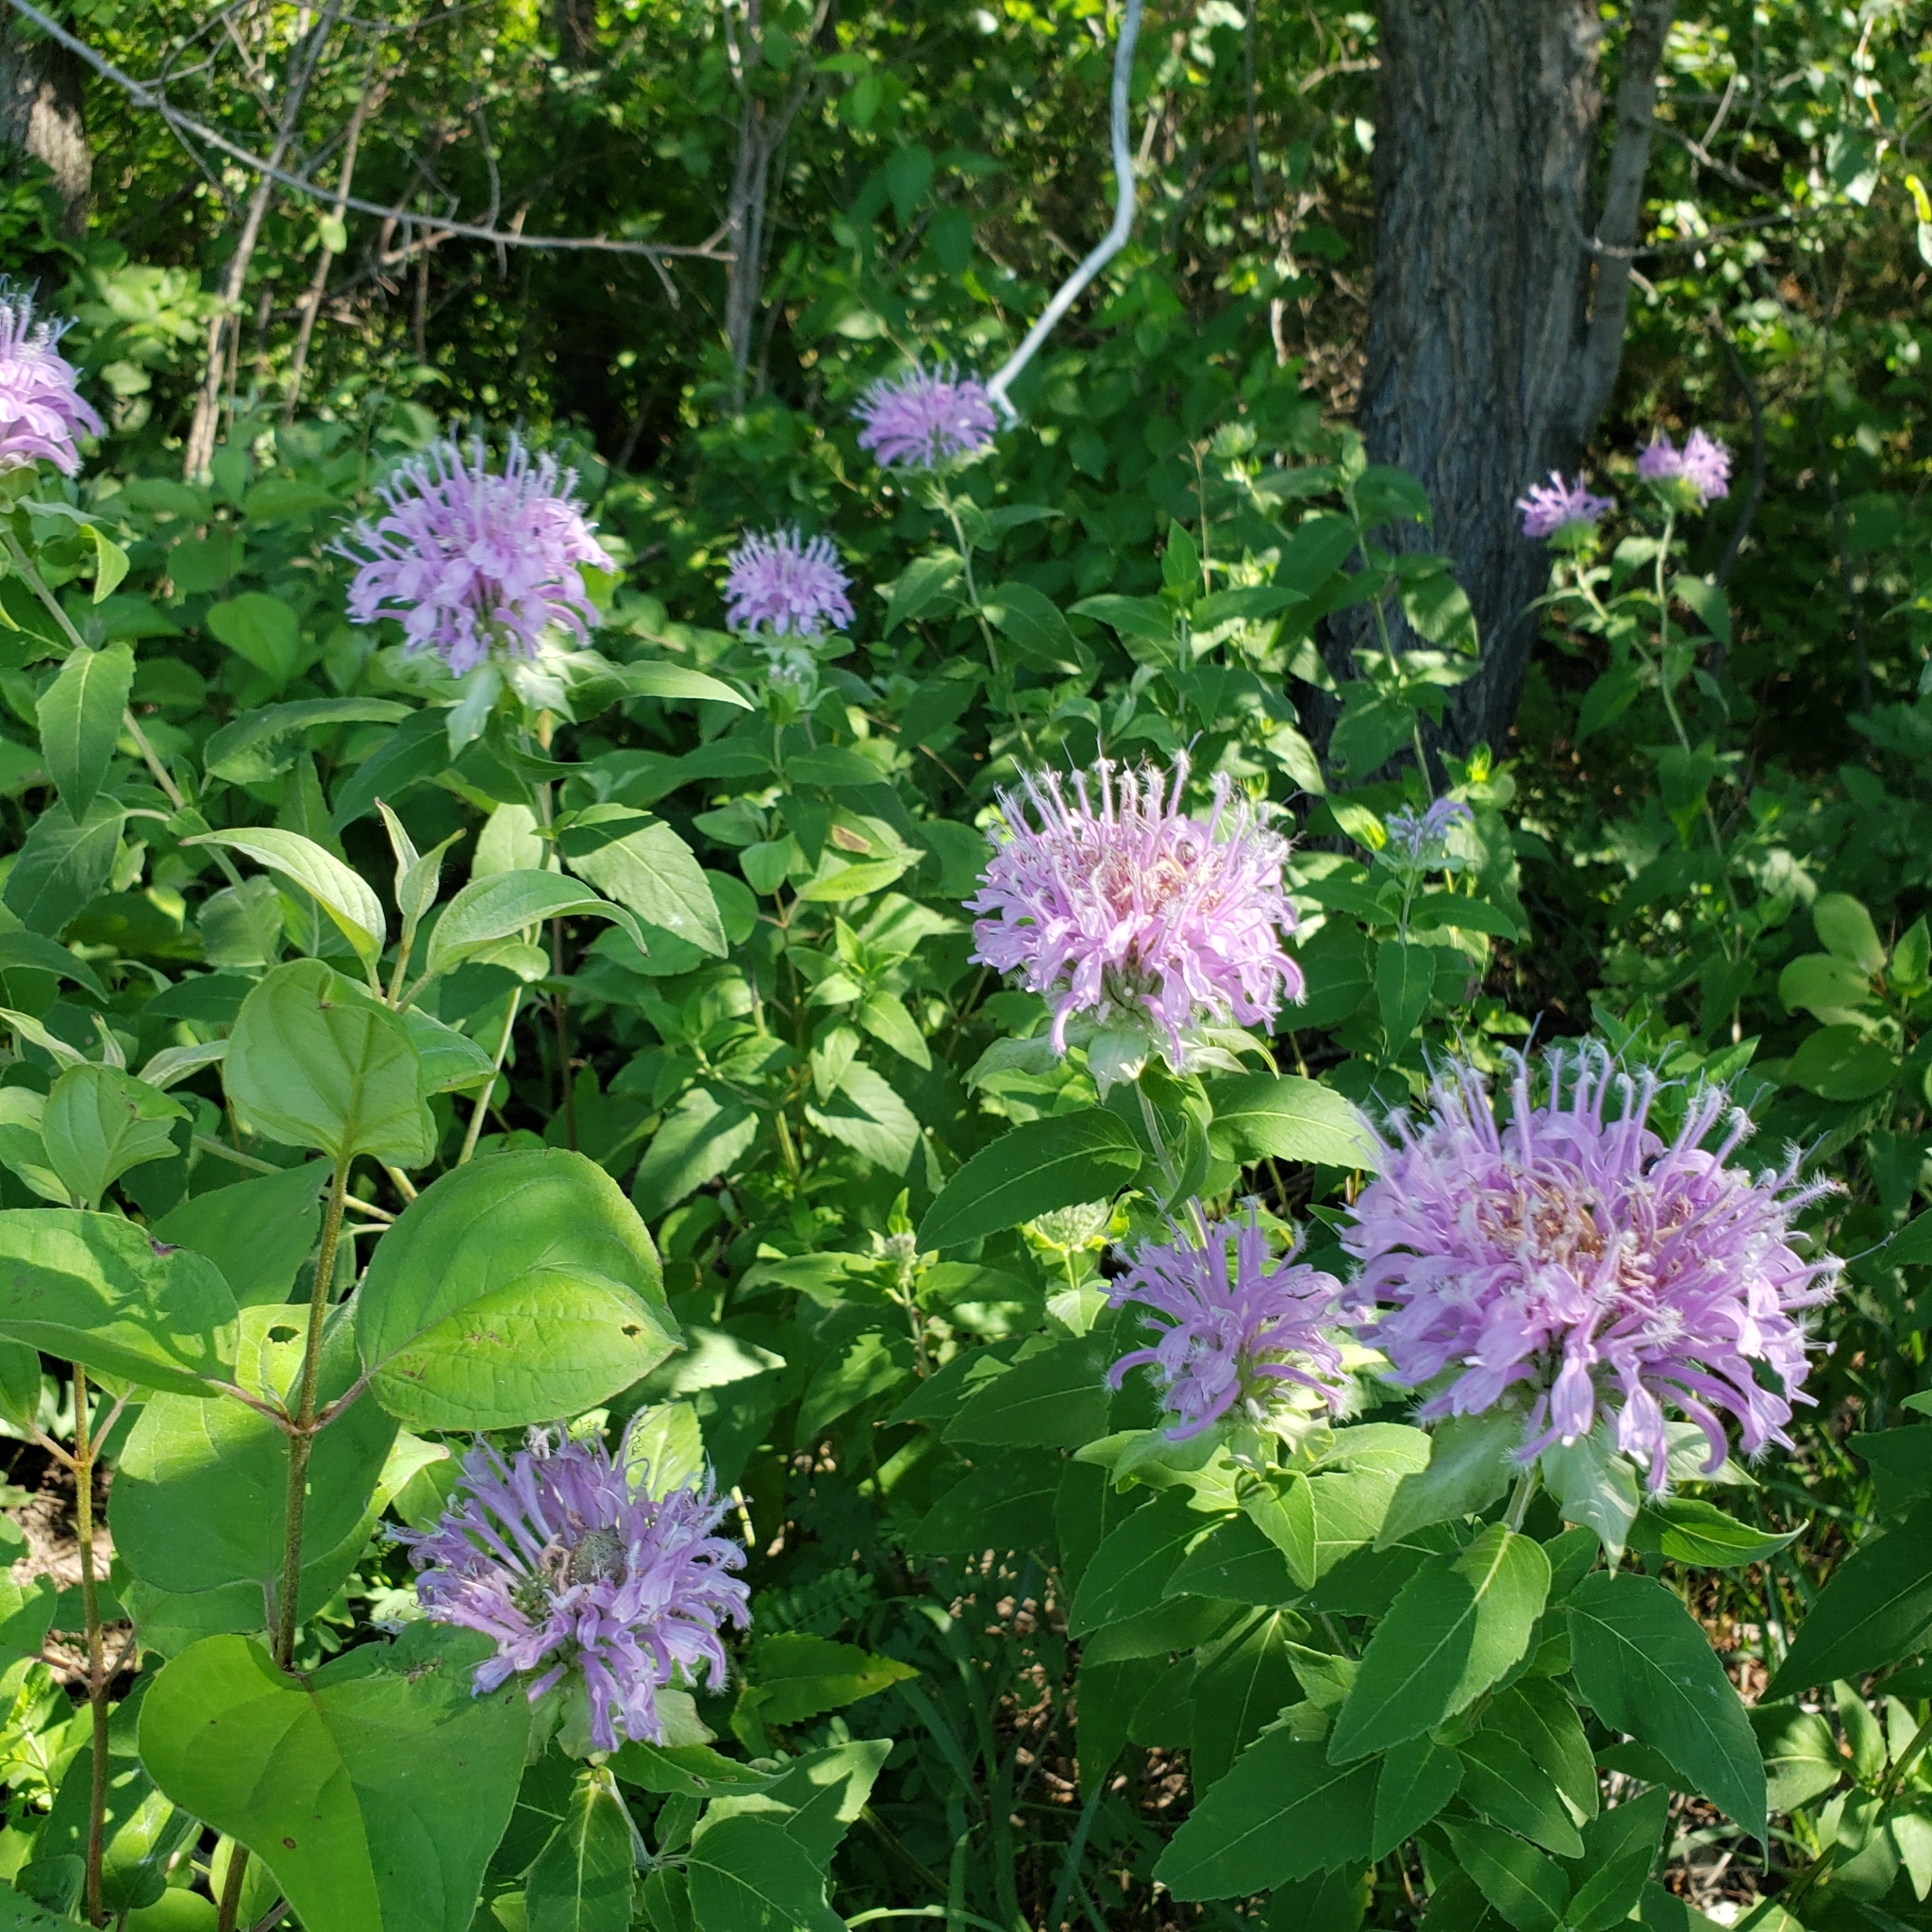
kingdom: Plantae
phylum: Tracheophyta
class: Magnoliopsida
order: Lamiales
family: Lamiaceae
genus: Monarda
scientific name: Monarda fistulosa
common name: Purple beebalm
